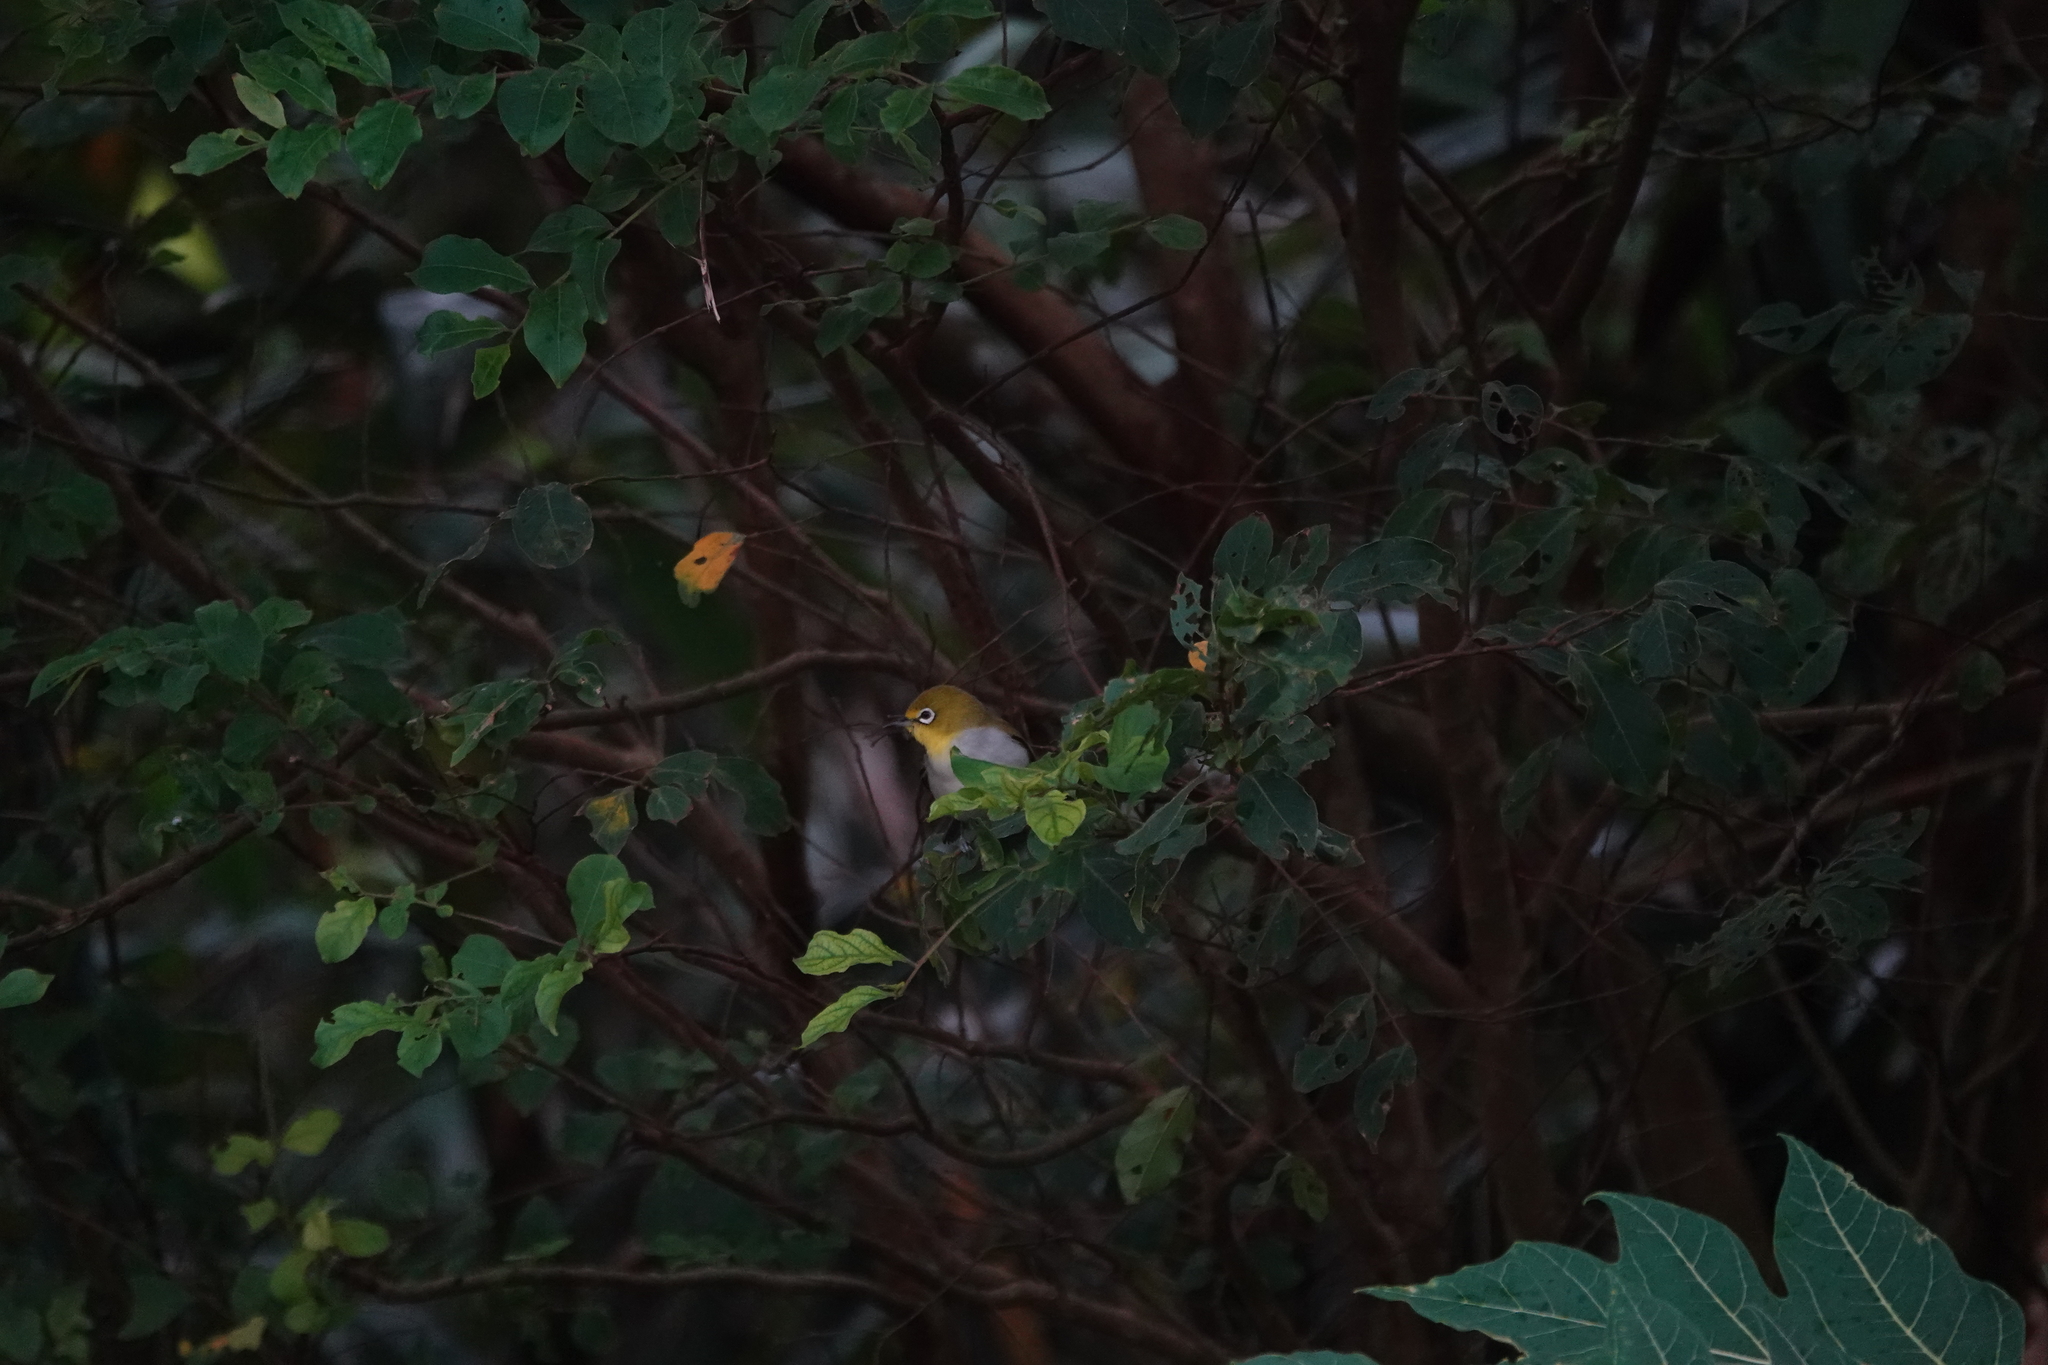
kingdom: Animalia
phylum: Chordata
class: Aves
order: Passeriformes
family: Zosteropidae
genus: Zosterops
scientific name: Zosterops simplex
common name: Swinhoe's white-eye
